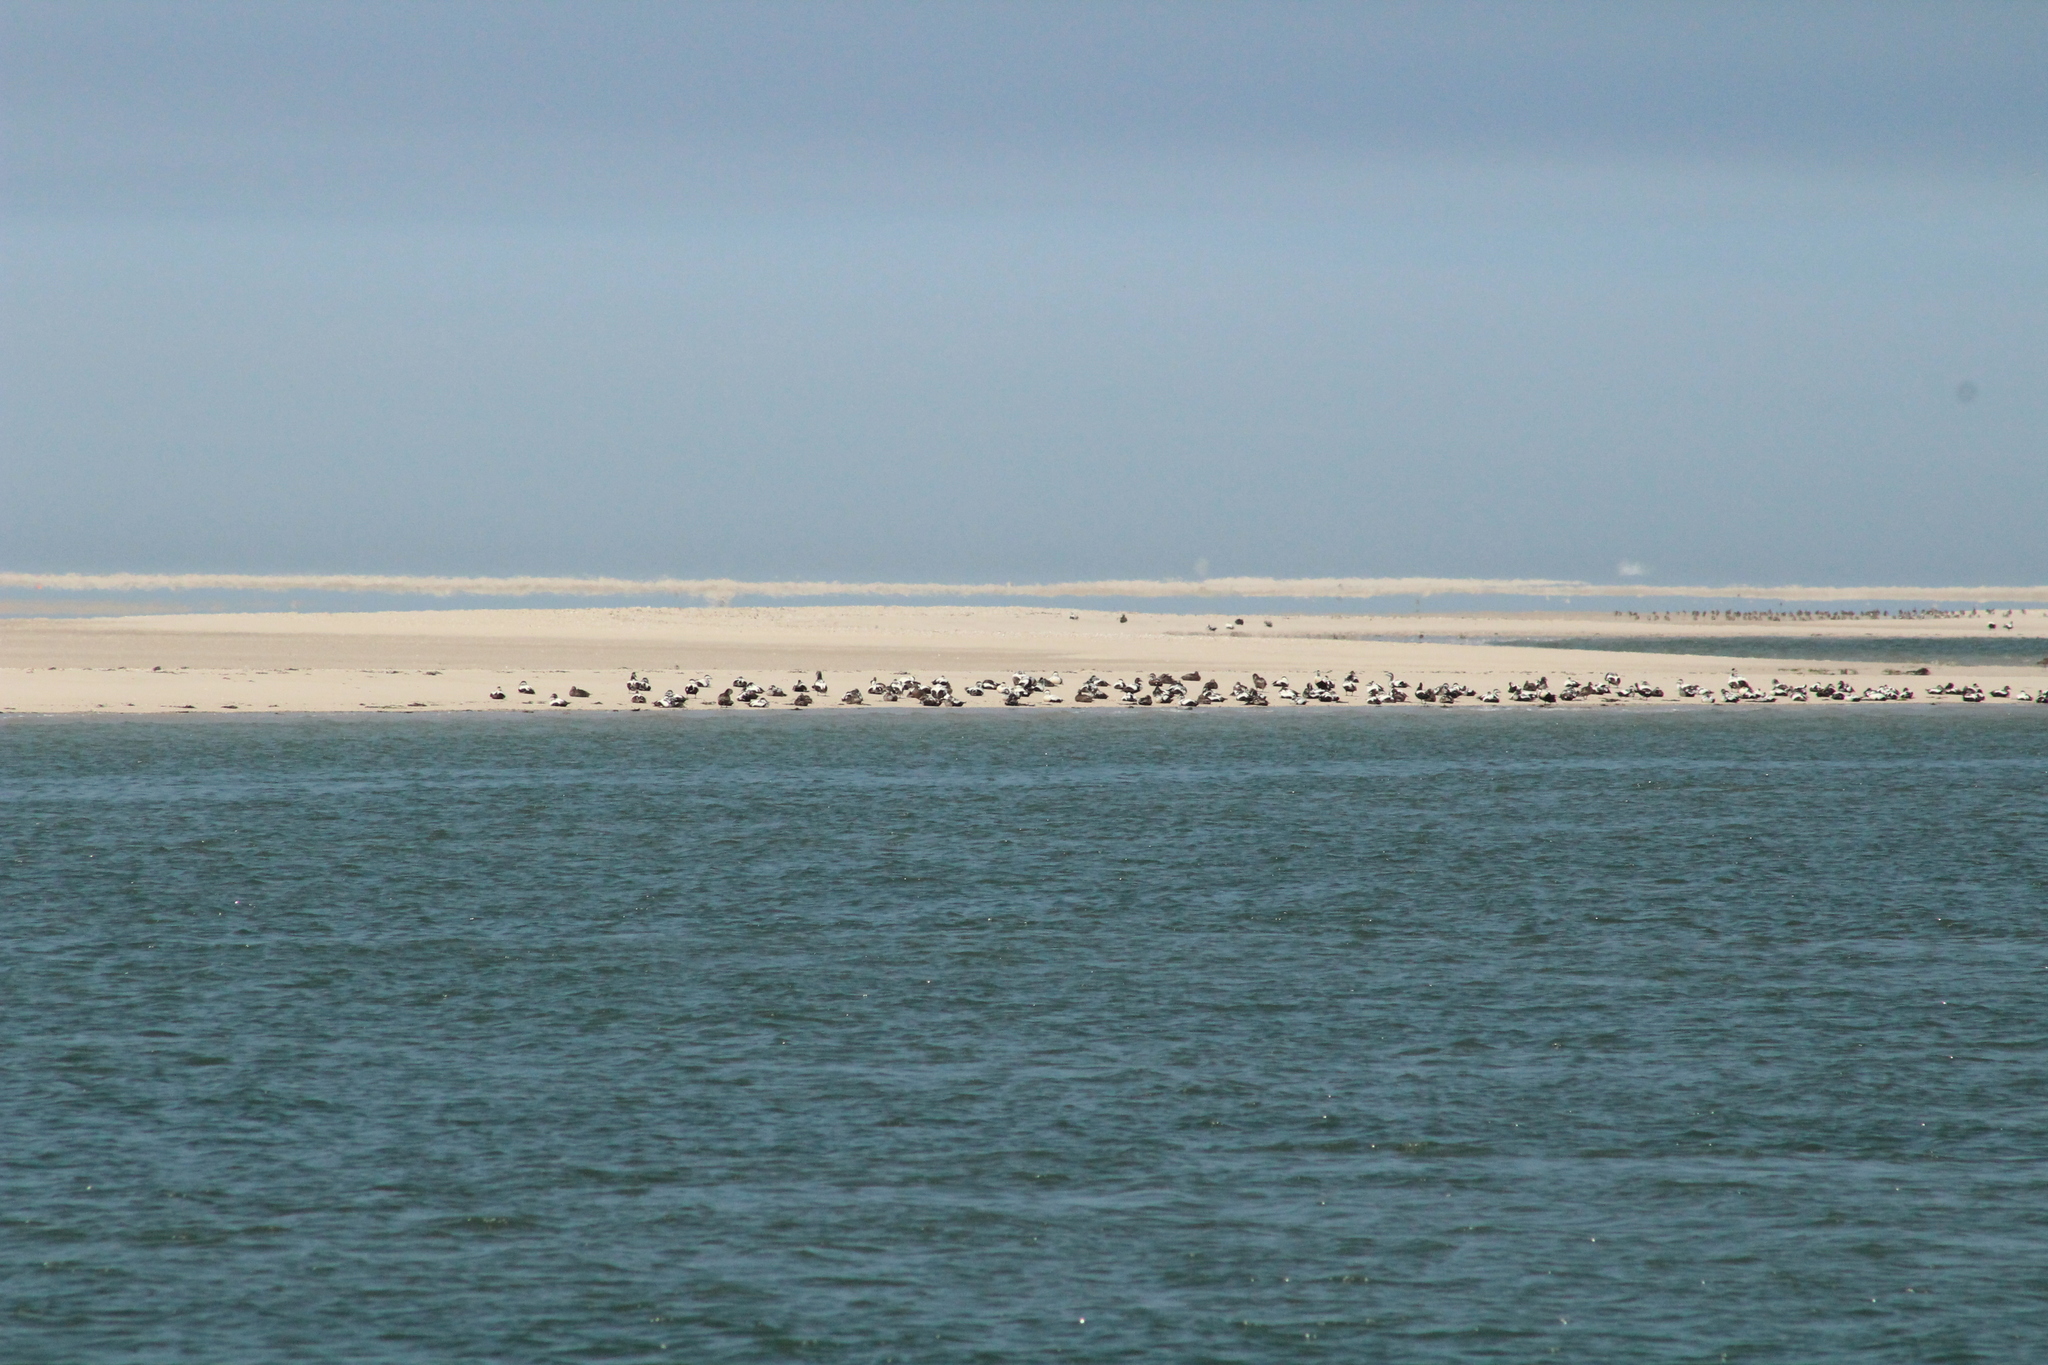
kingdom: Animalia
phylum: Chordata
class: Aves
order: Anseriformes
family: Anatidae
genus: Somateria
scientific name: Somateria mollissima
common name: Common eider
